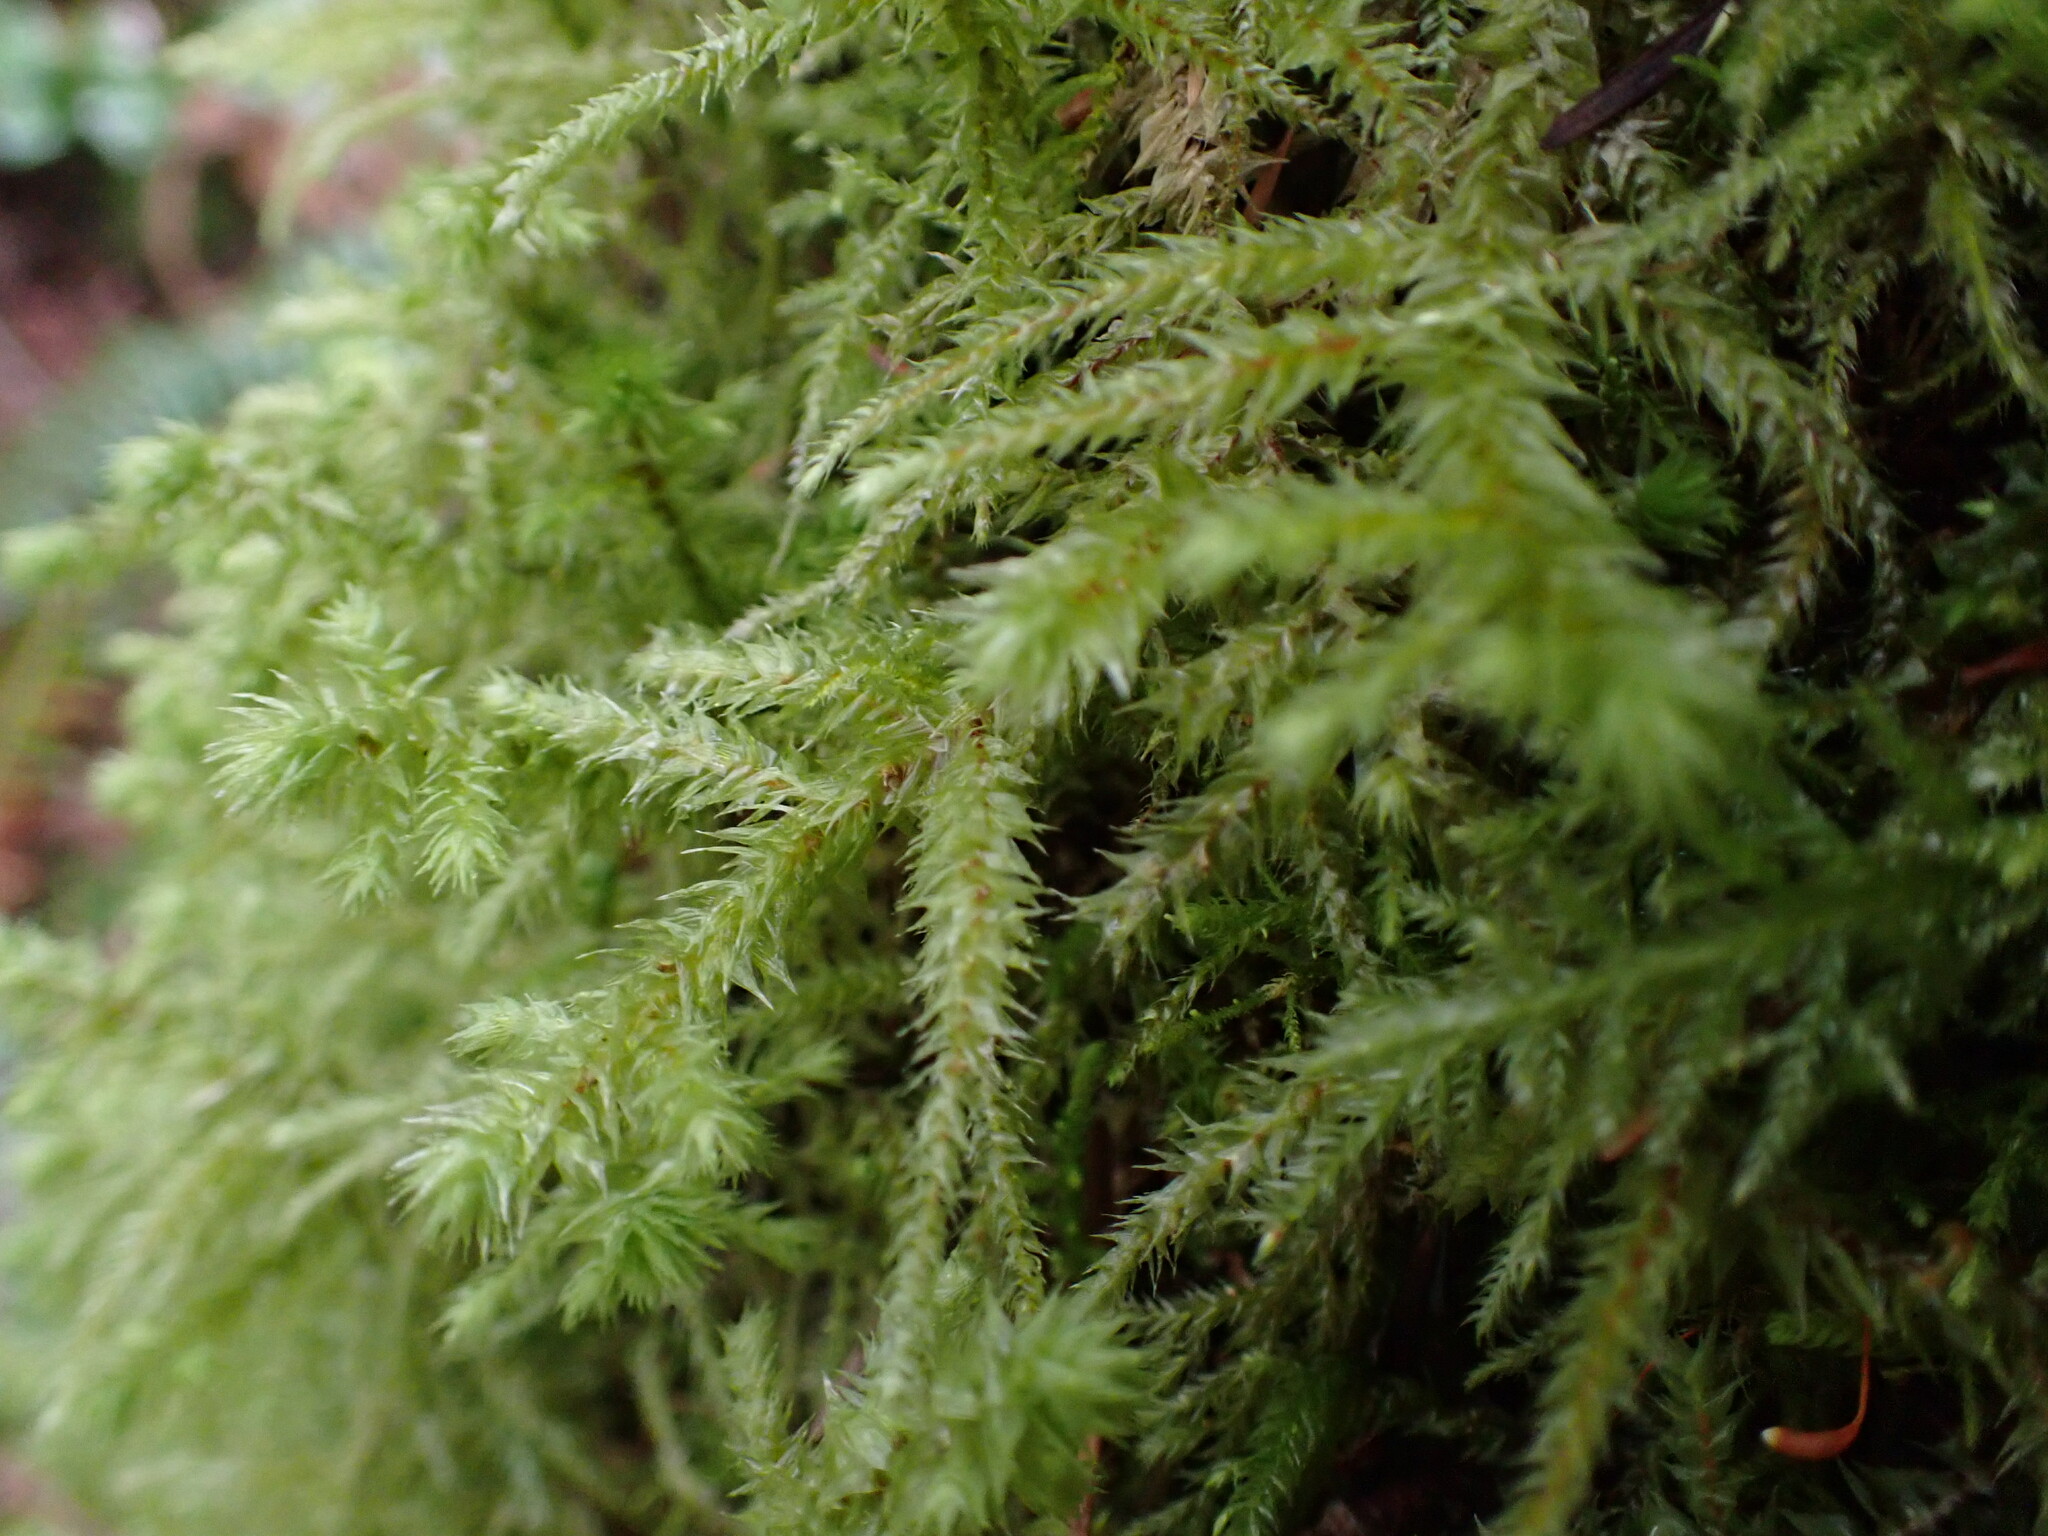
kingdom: Plantae
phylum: Bryophyta
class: Bryopsida
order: Hypnales
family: Hylocomiaceae
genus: Hylocomiadelphus
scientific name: Hylocomiadelphus triquetrus
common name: Rough goose neck moss
